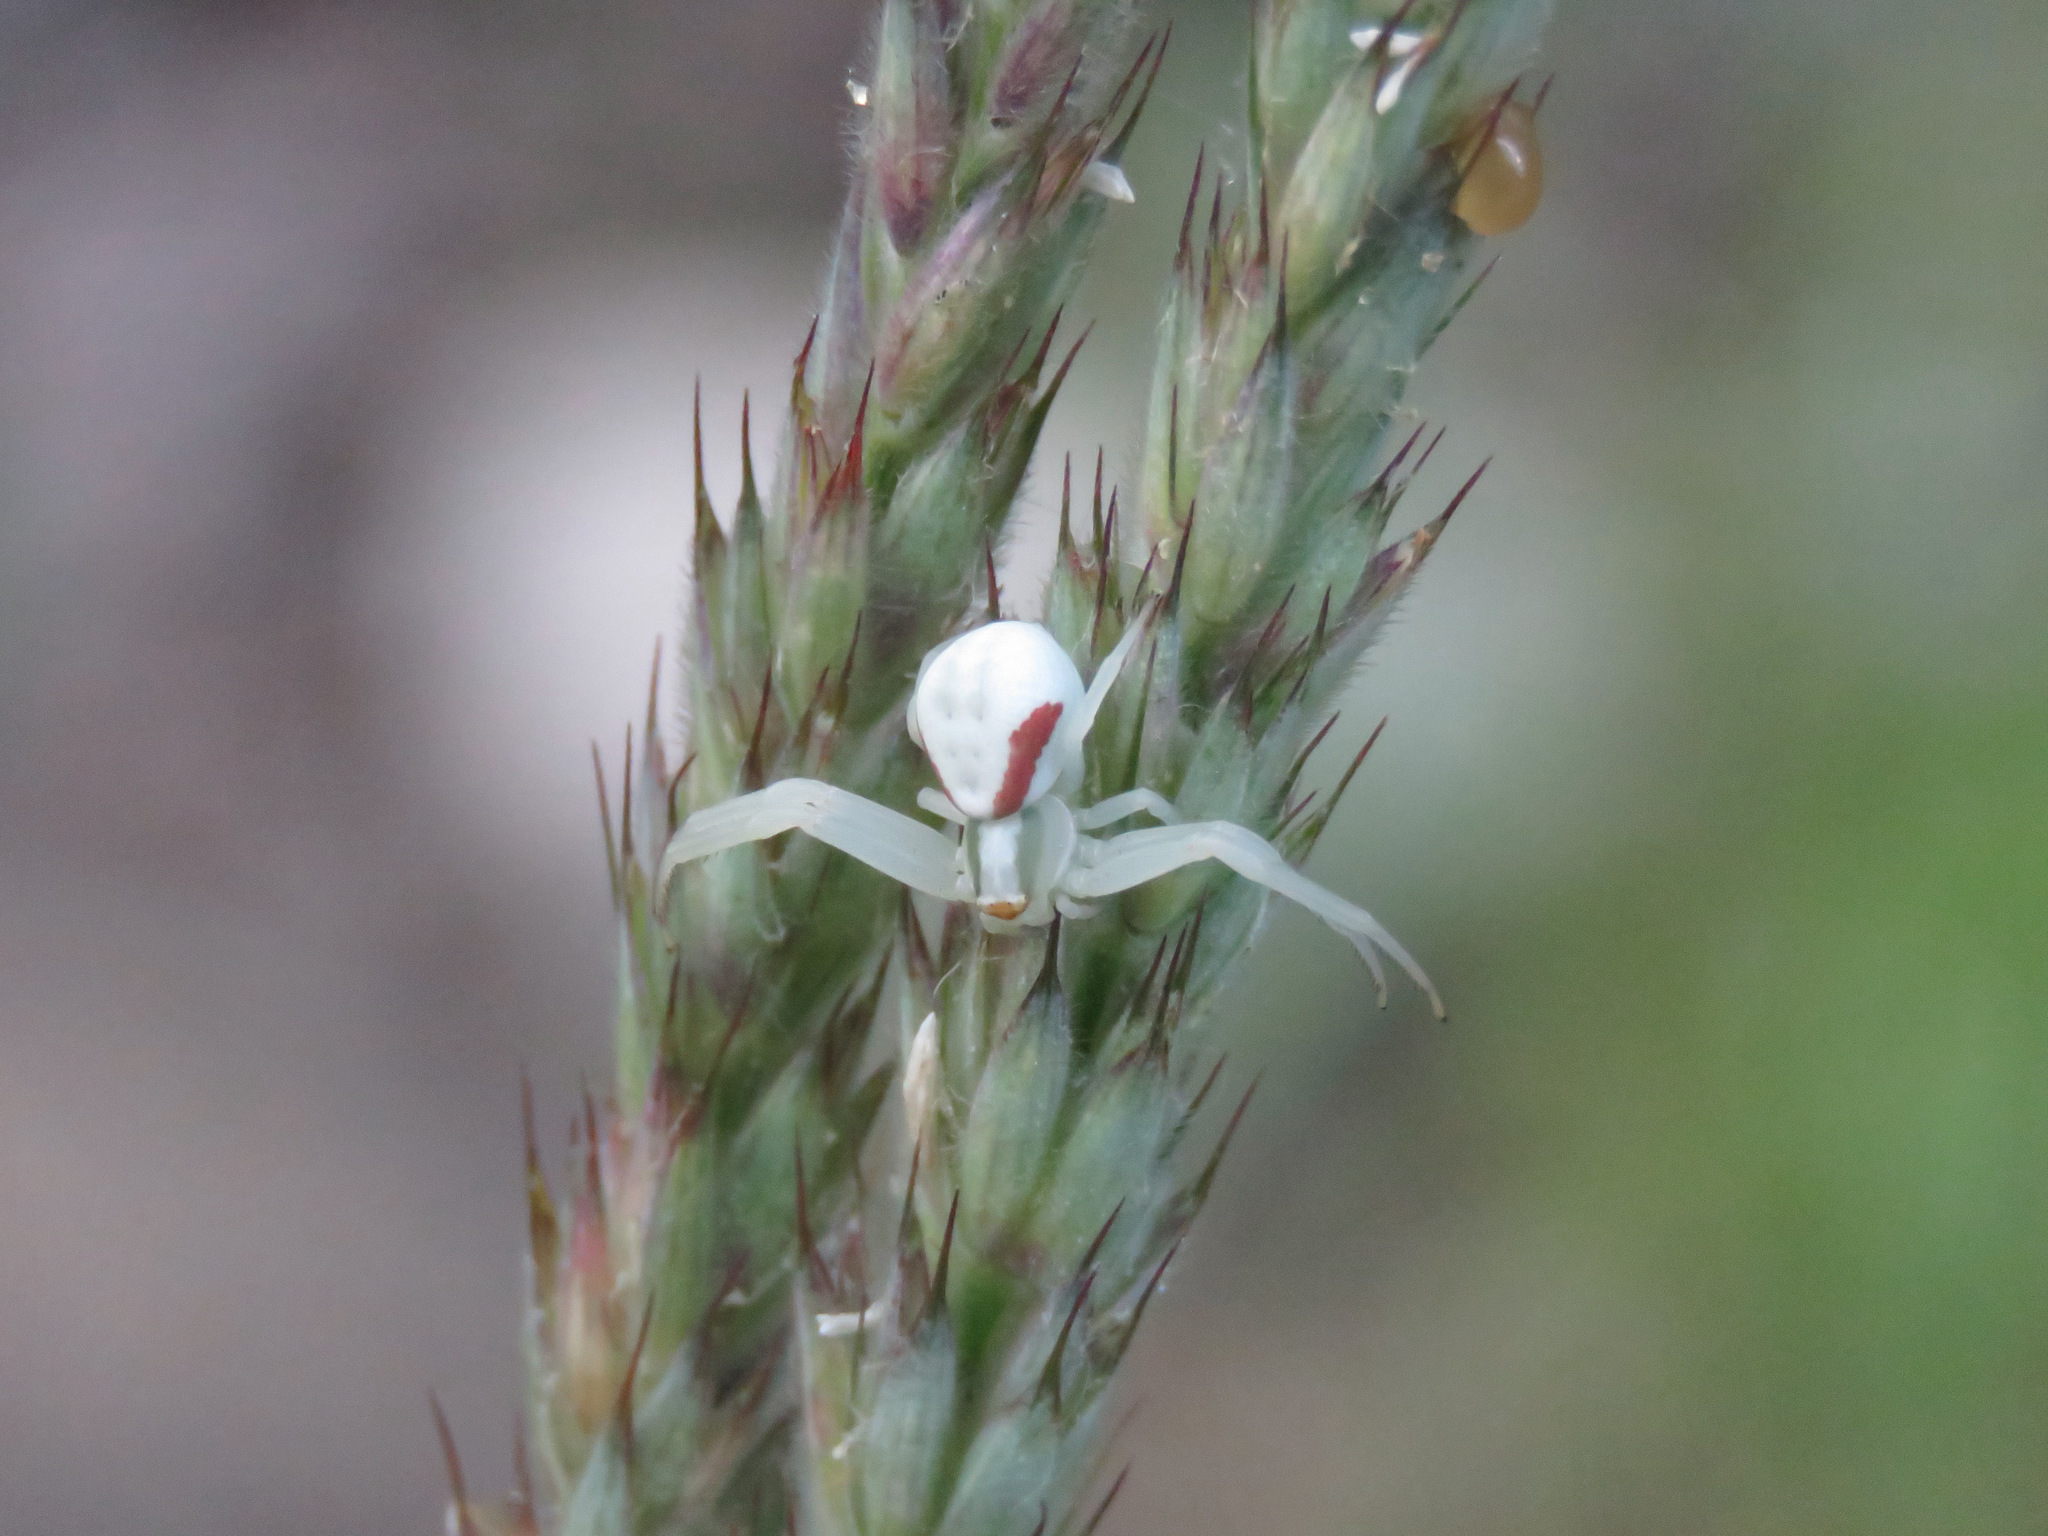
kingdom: Animalia
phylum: Arthropoda
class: Arachnida
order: Araneae
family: Thomisidae
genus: Misumena
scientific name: Misumena vatia
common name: Goldenrod crab spider
